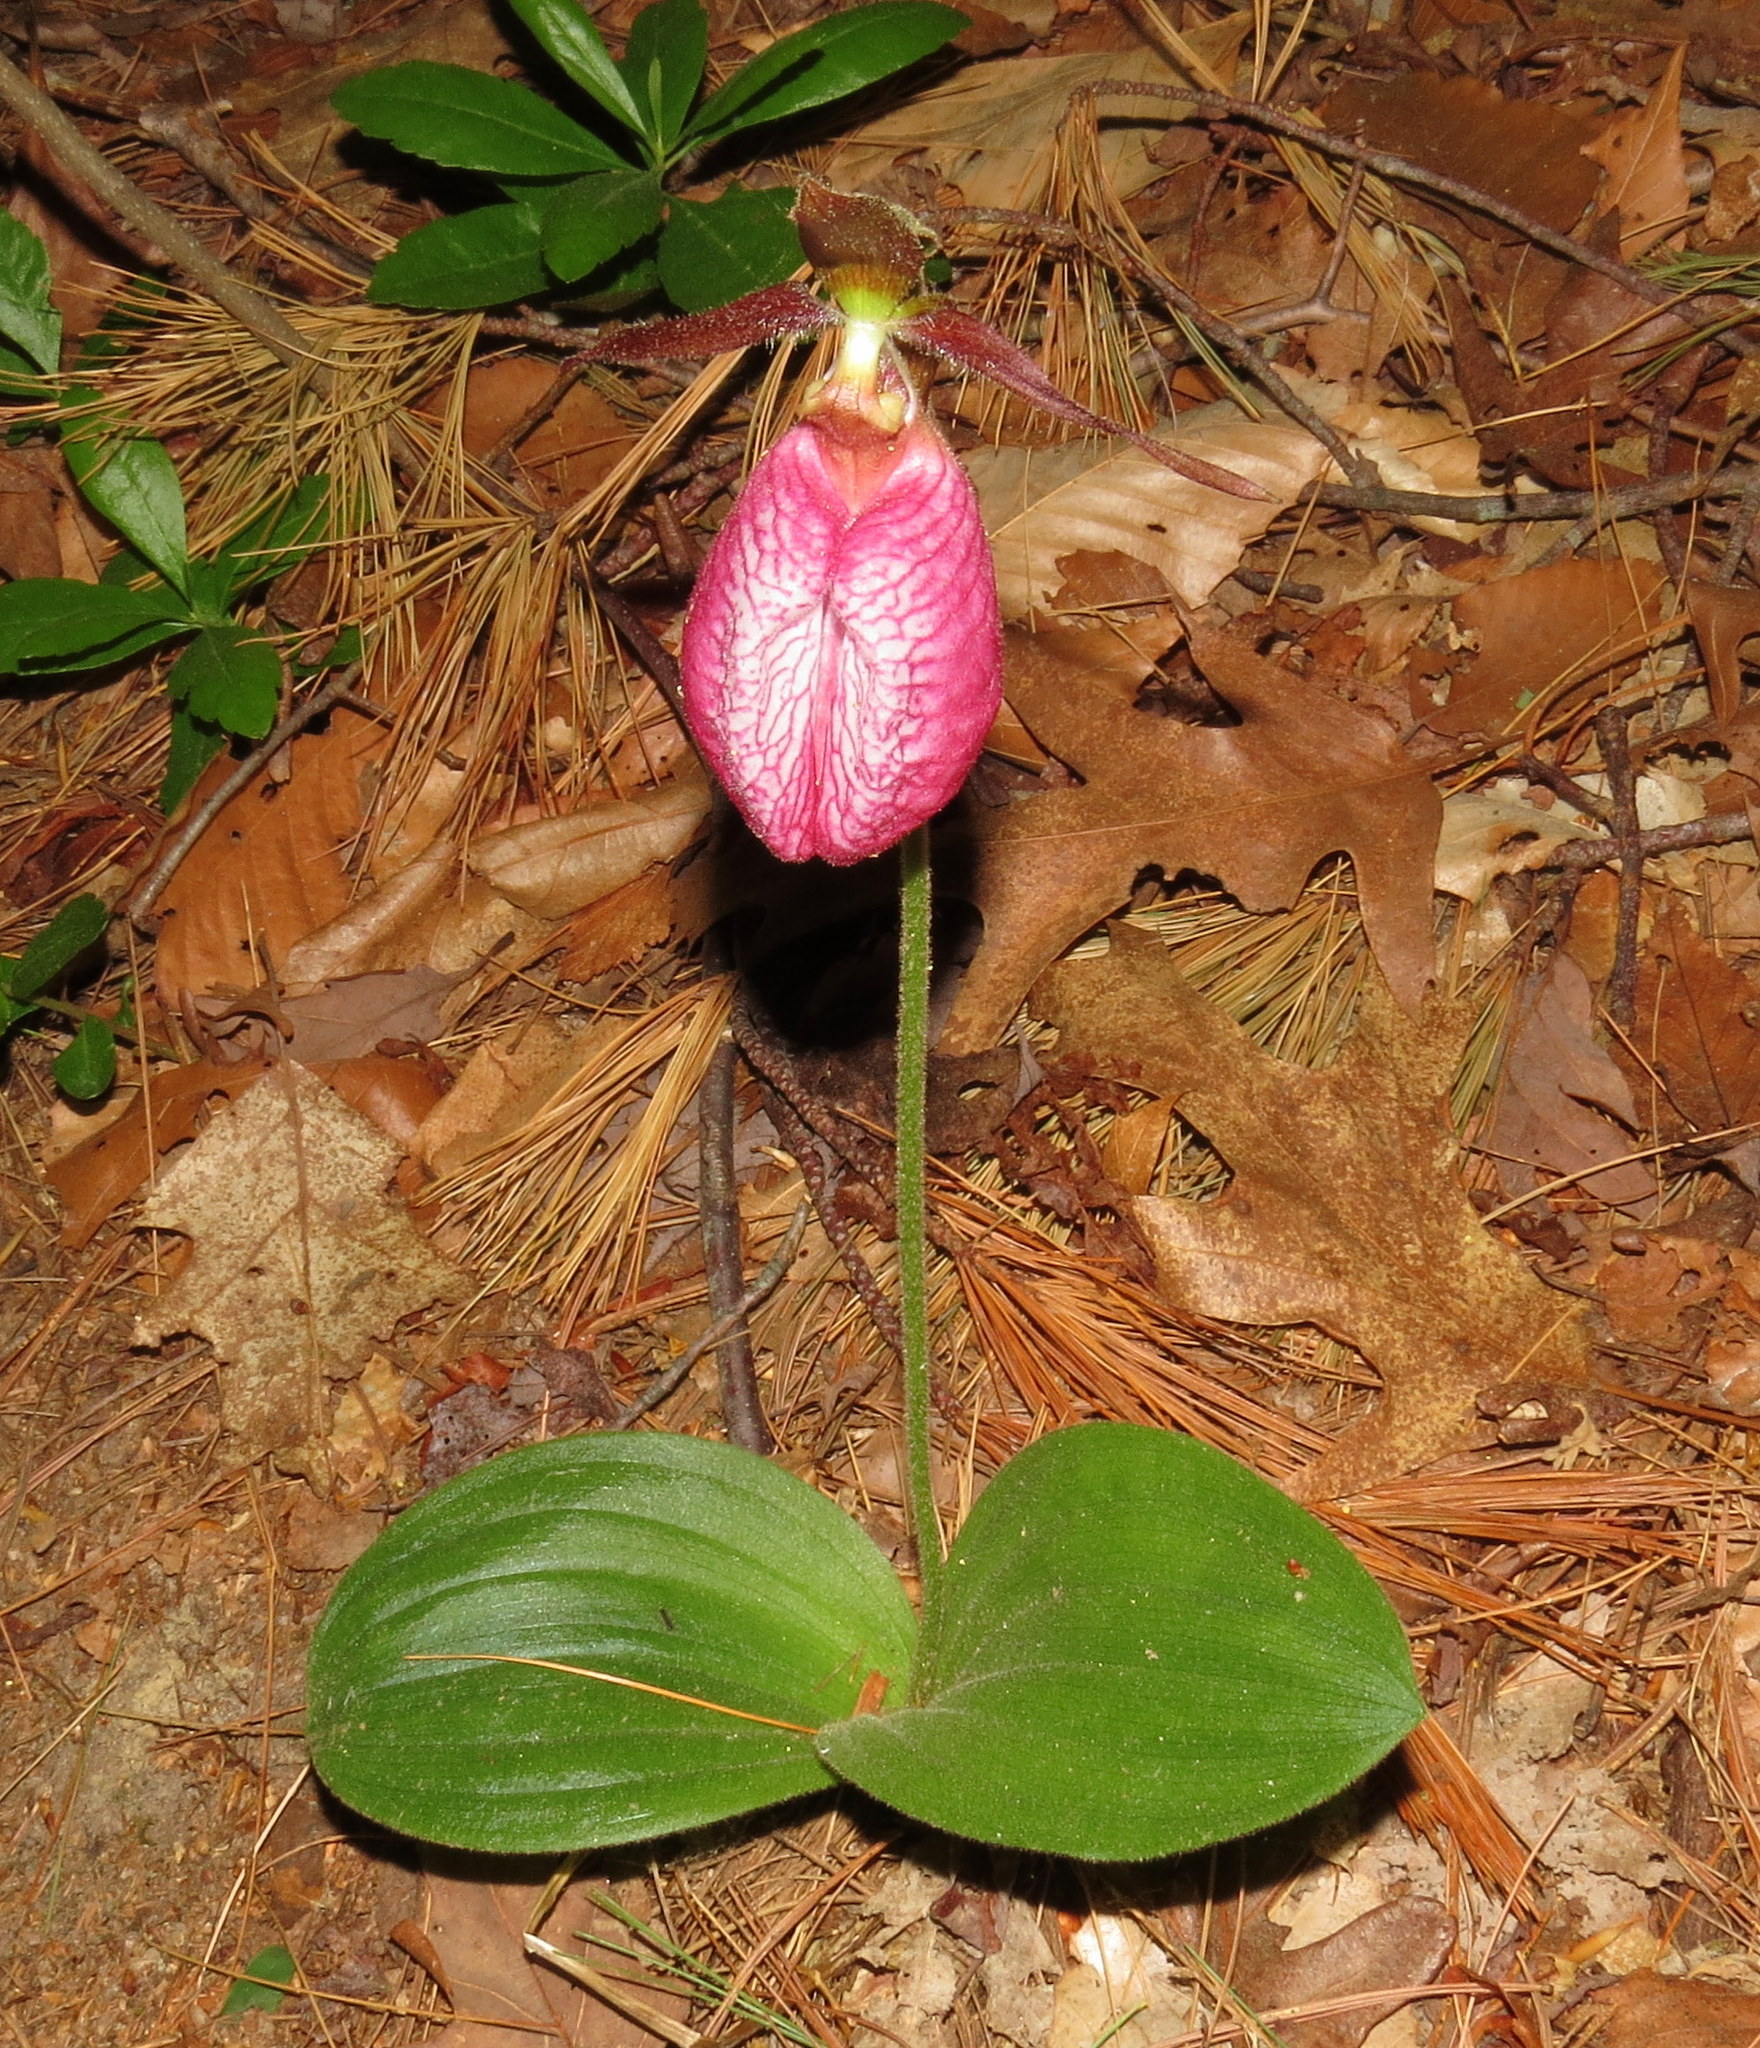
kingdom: Plantae
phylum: Tracheophyta
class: Liliopsida
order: Asparagales
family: Orchidaceae
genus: Cypripedium
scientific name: Cypripedium acaule
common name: Pink lady's-slipper
